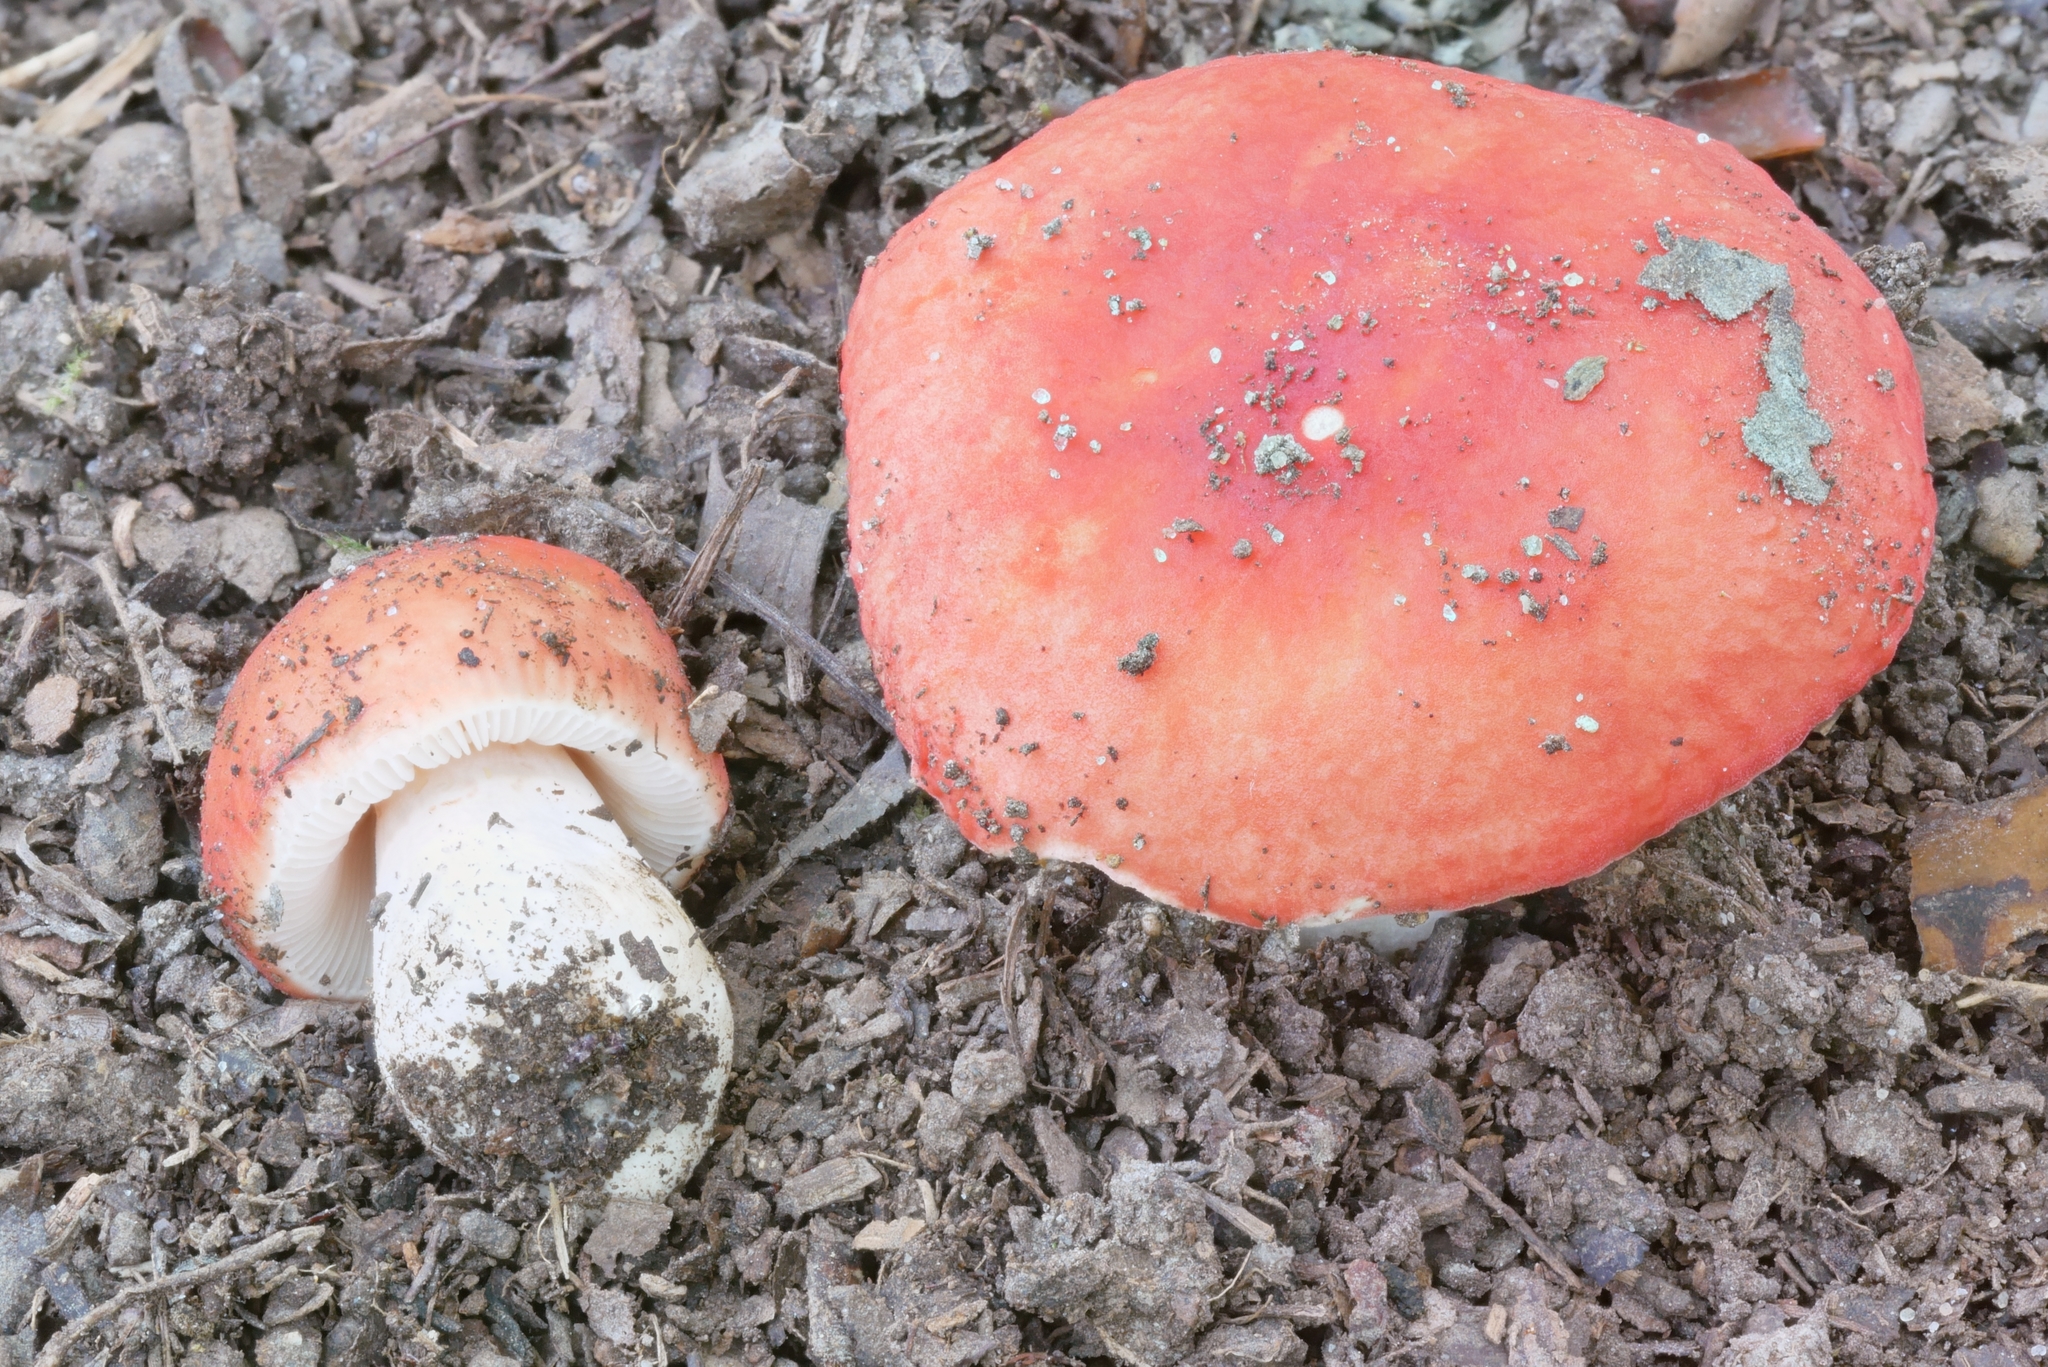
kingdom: Fungi
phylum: Basidiomycota
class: Agaricomycetes
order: Russulales
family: Russulaceae
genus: Russula
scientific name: Russula pusilla
